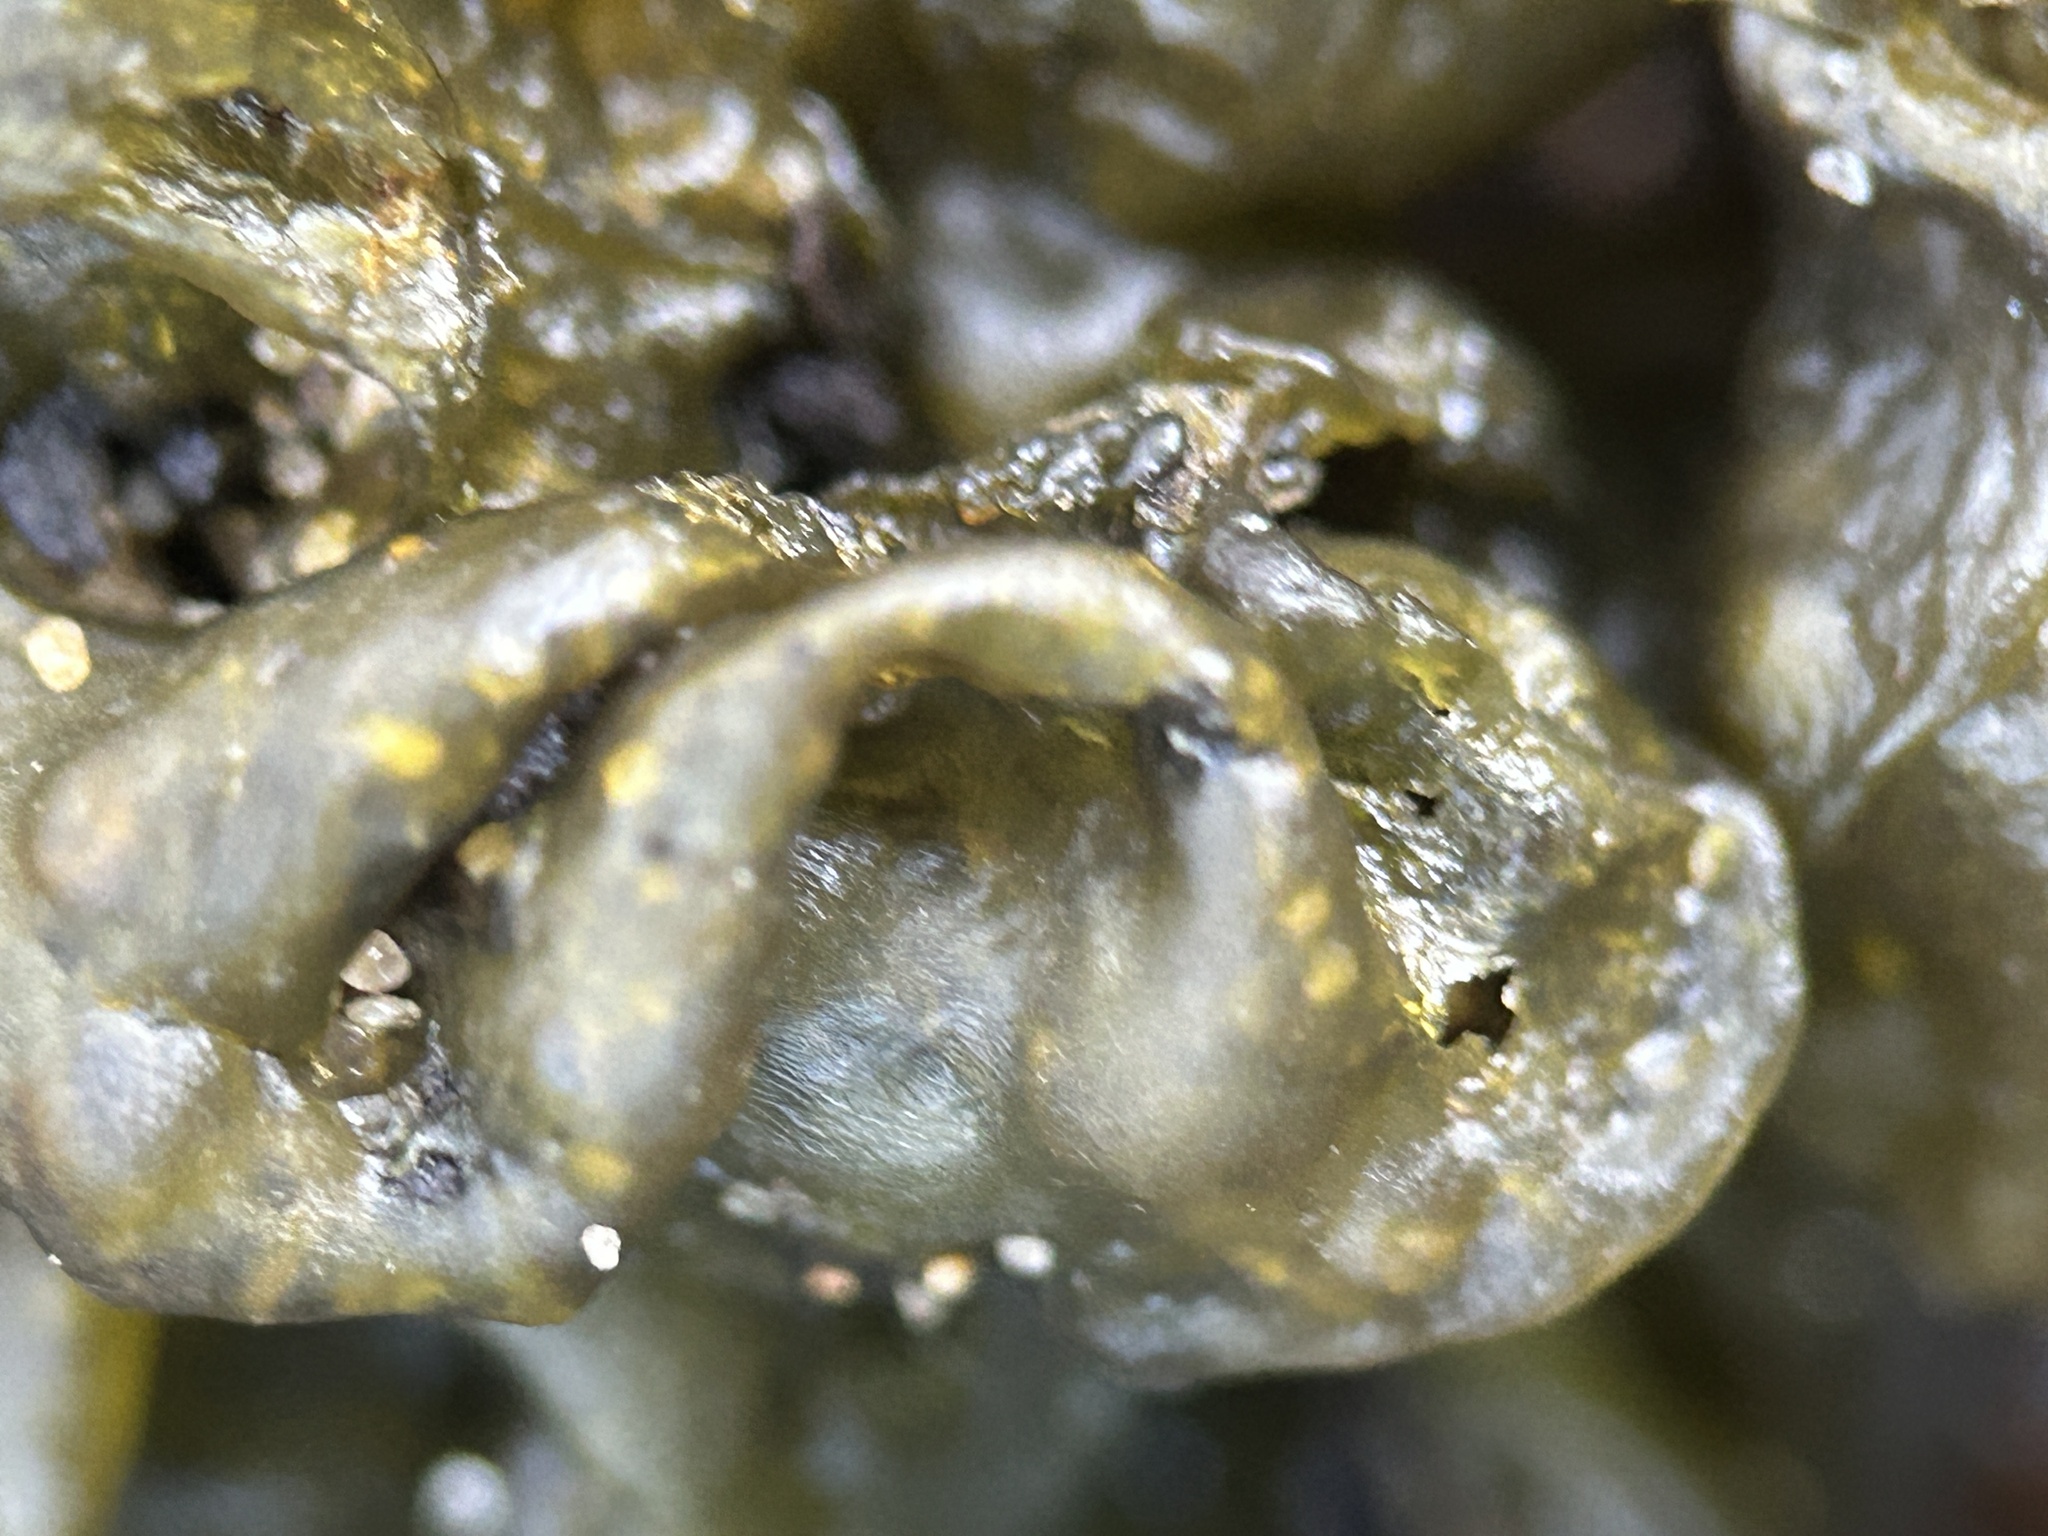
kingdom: Bacteria
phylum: Cyanobacteria
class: Cyanobacteriia
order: Cyanobacteriales
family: Nostocaceae
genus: Nostoc
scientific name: Nostoc commune
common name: Star jelly
